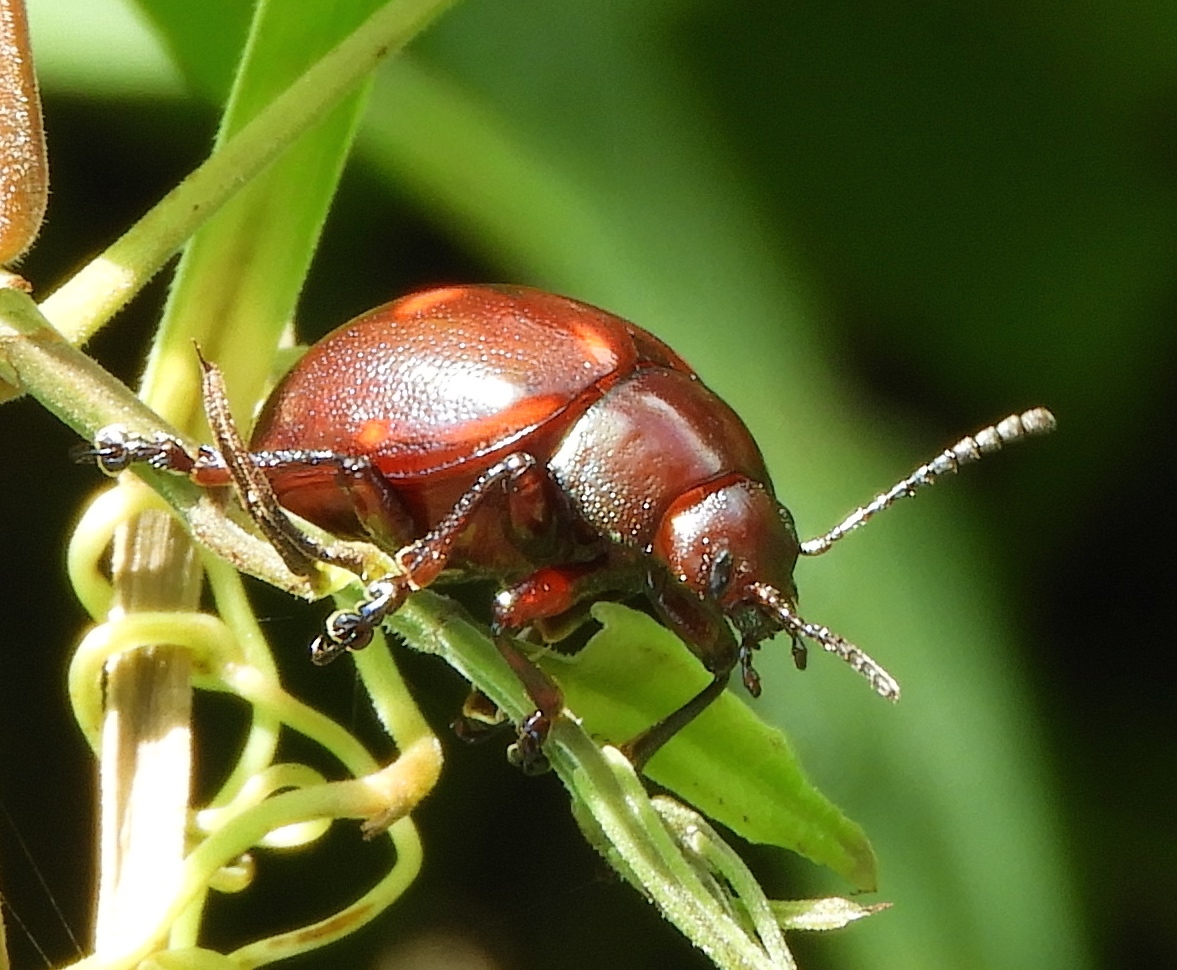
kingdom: Animalia
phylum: Arthropoda
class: Insecta
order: Coleoptera
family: Chrysomelidae
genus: Leptinotarsa
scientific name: Leptinotarsa behrensi
